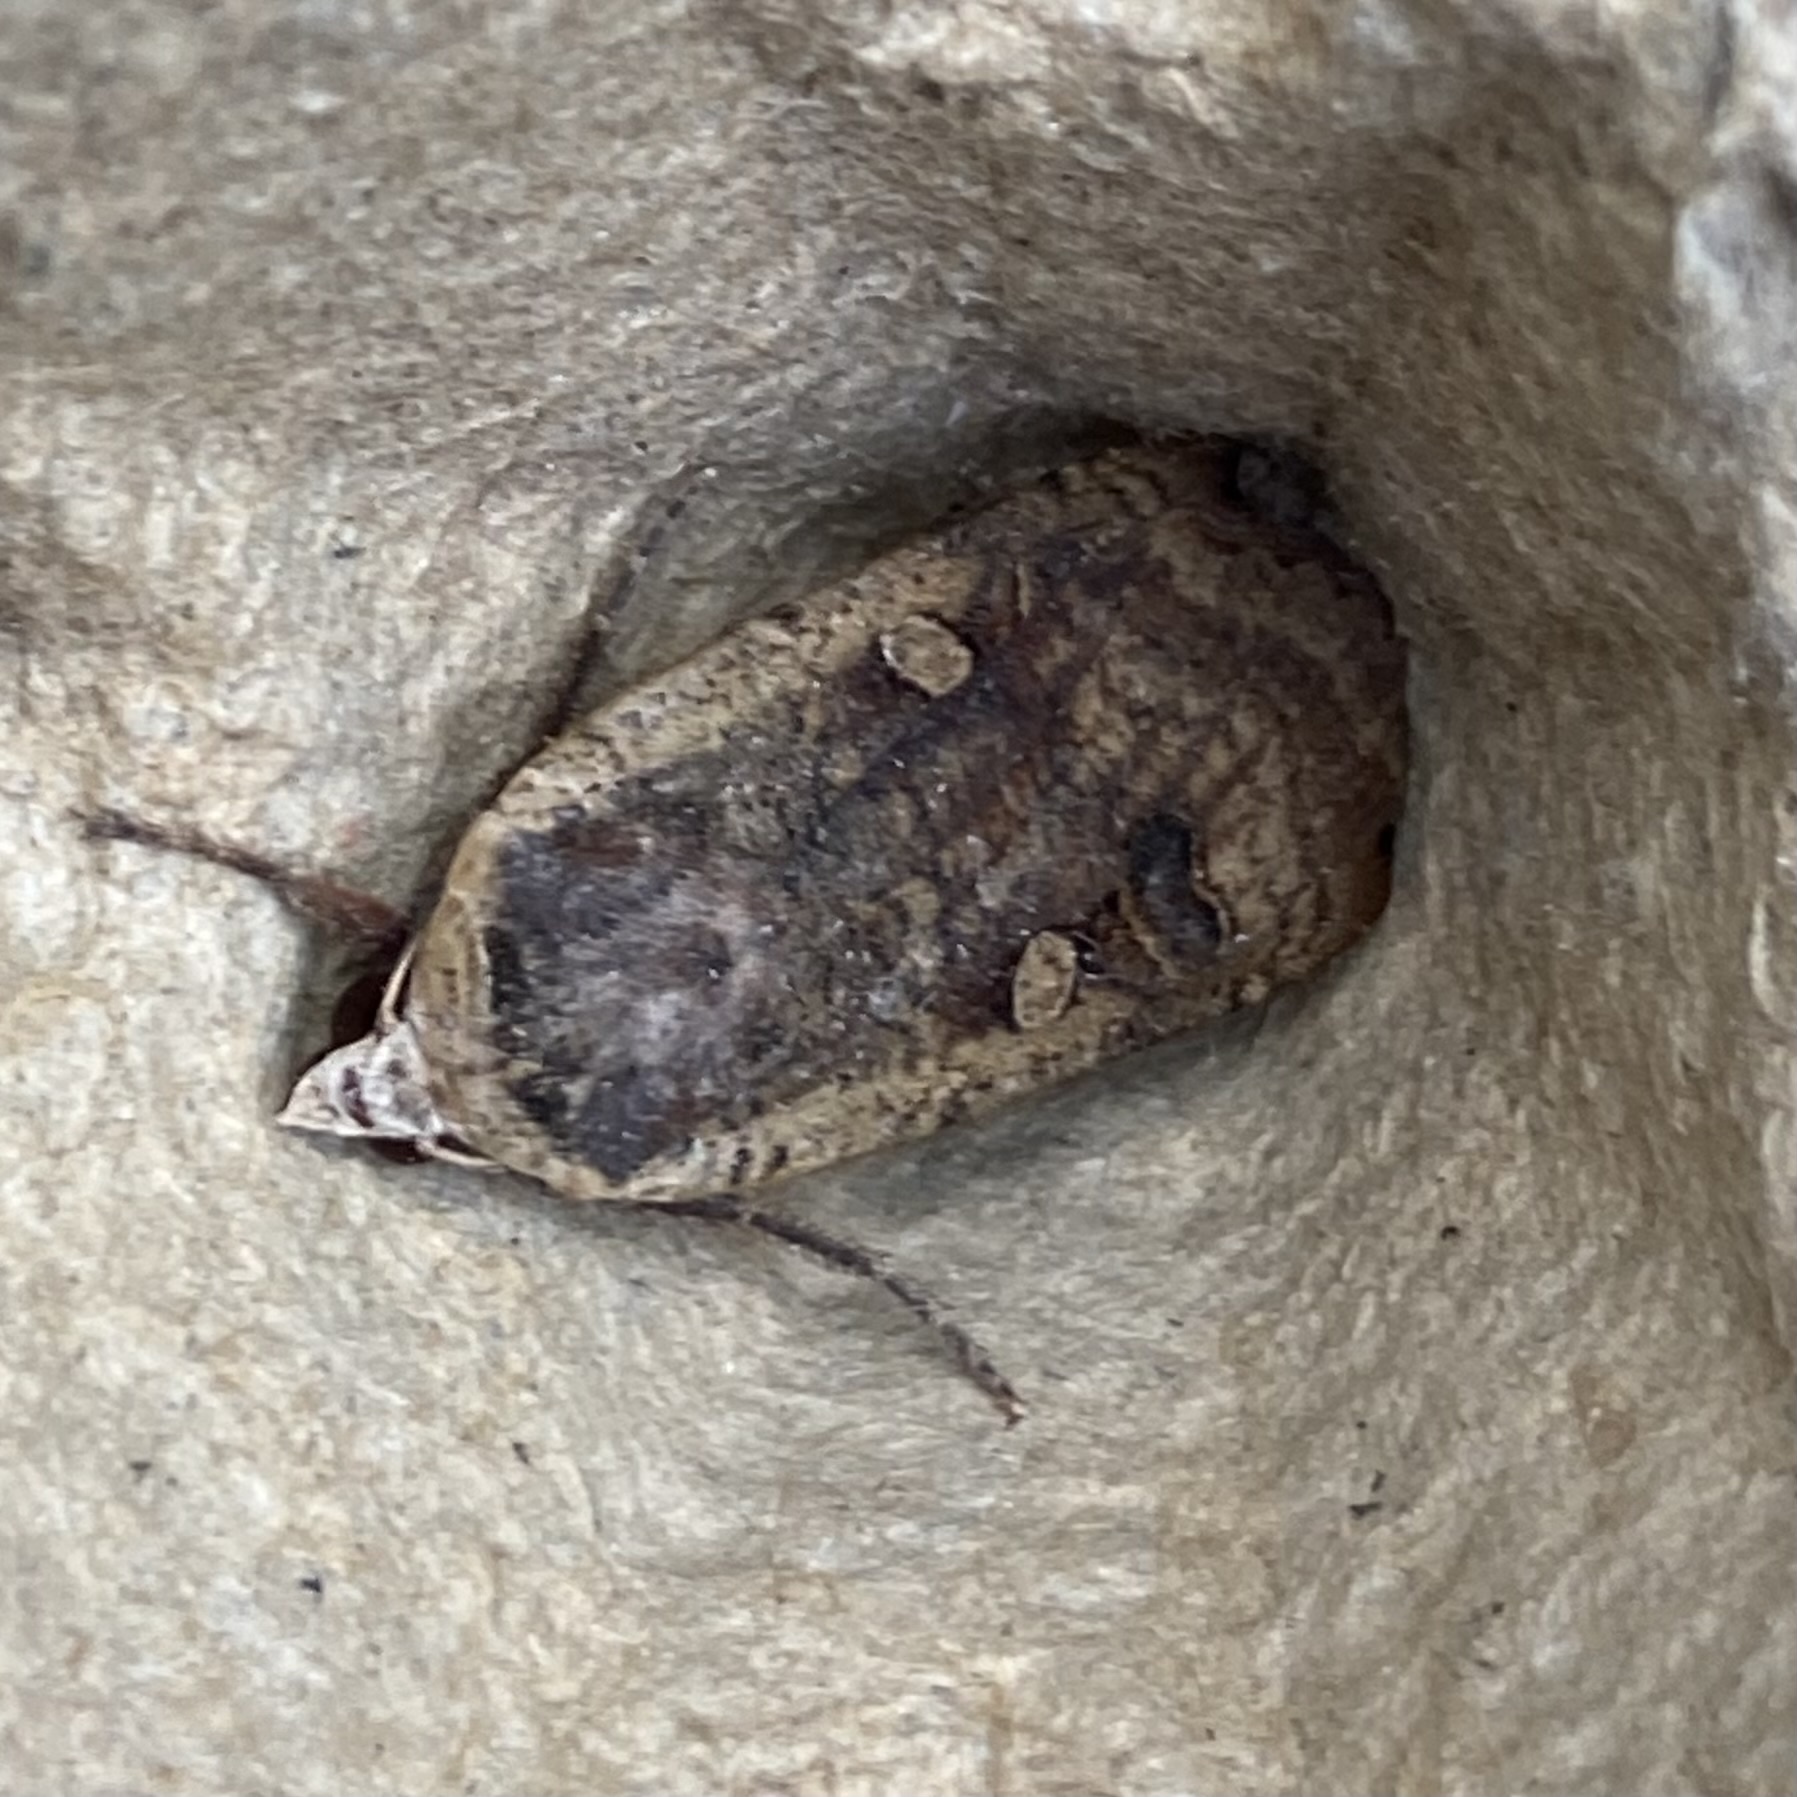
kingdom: Animalia
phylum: Arthropoda
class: Insecta
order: Lepidoptera
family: Noctuidae
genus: Noctua
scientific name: Noctua pronuba
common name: Large yellow underwing
